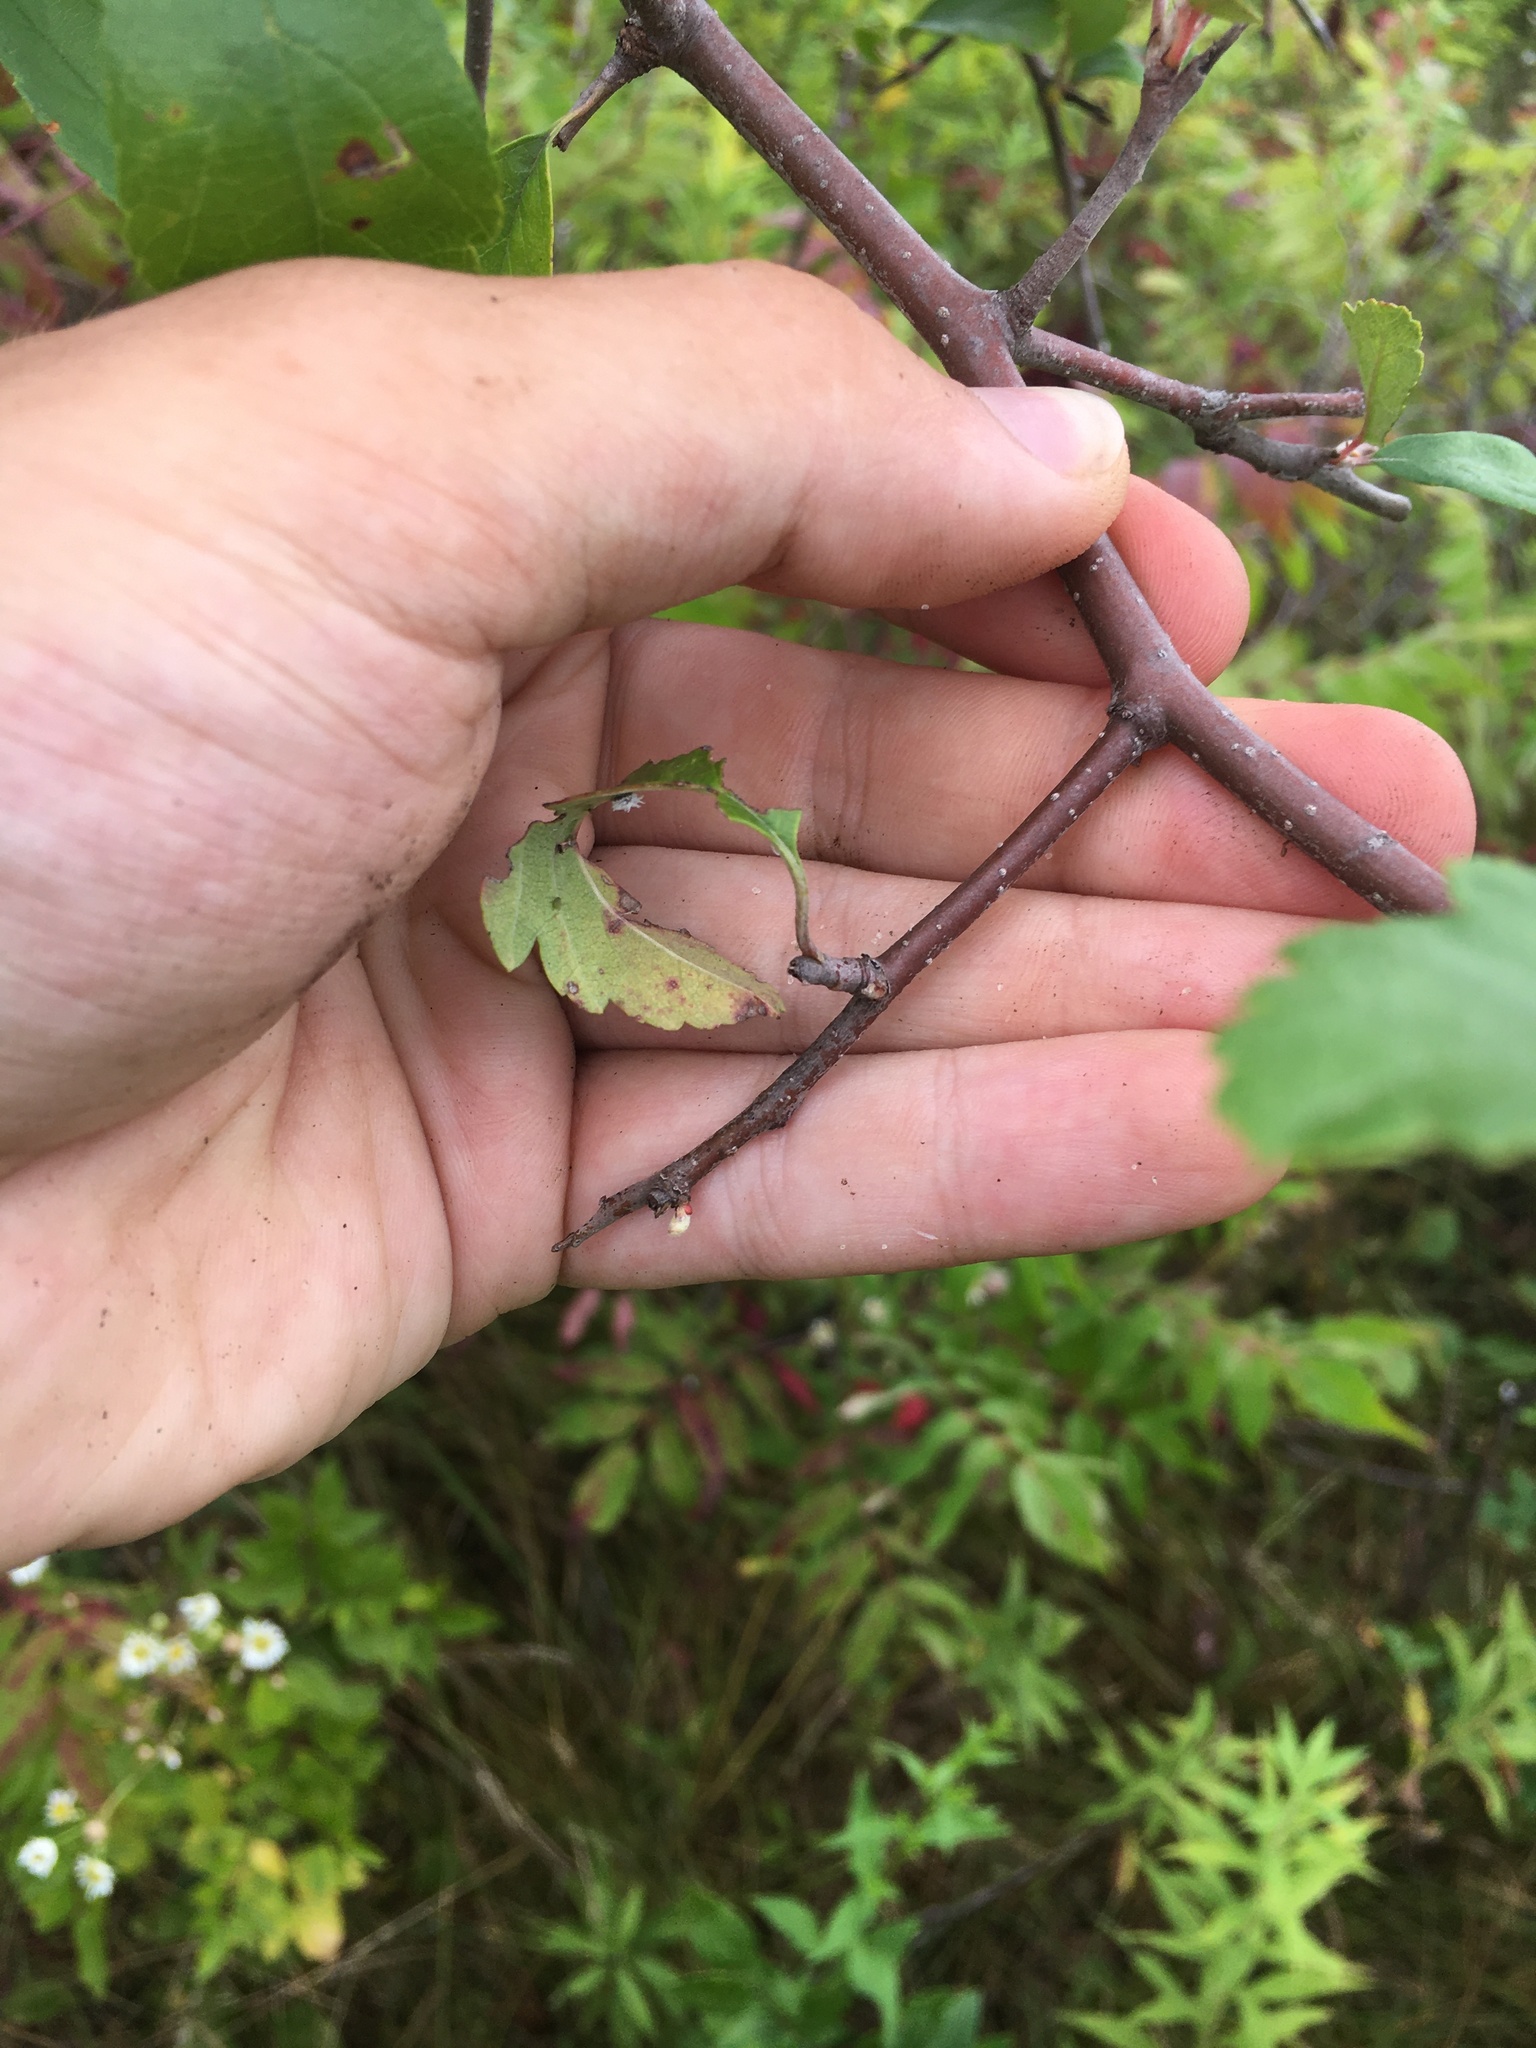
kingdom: Plantae
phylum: Tracheophyta
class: Magnoliopsida
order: Rosales
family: Rosaceae
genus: Malus
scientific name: Malus ioensis
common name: Iowa crab apple
